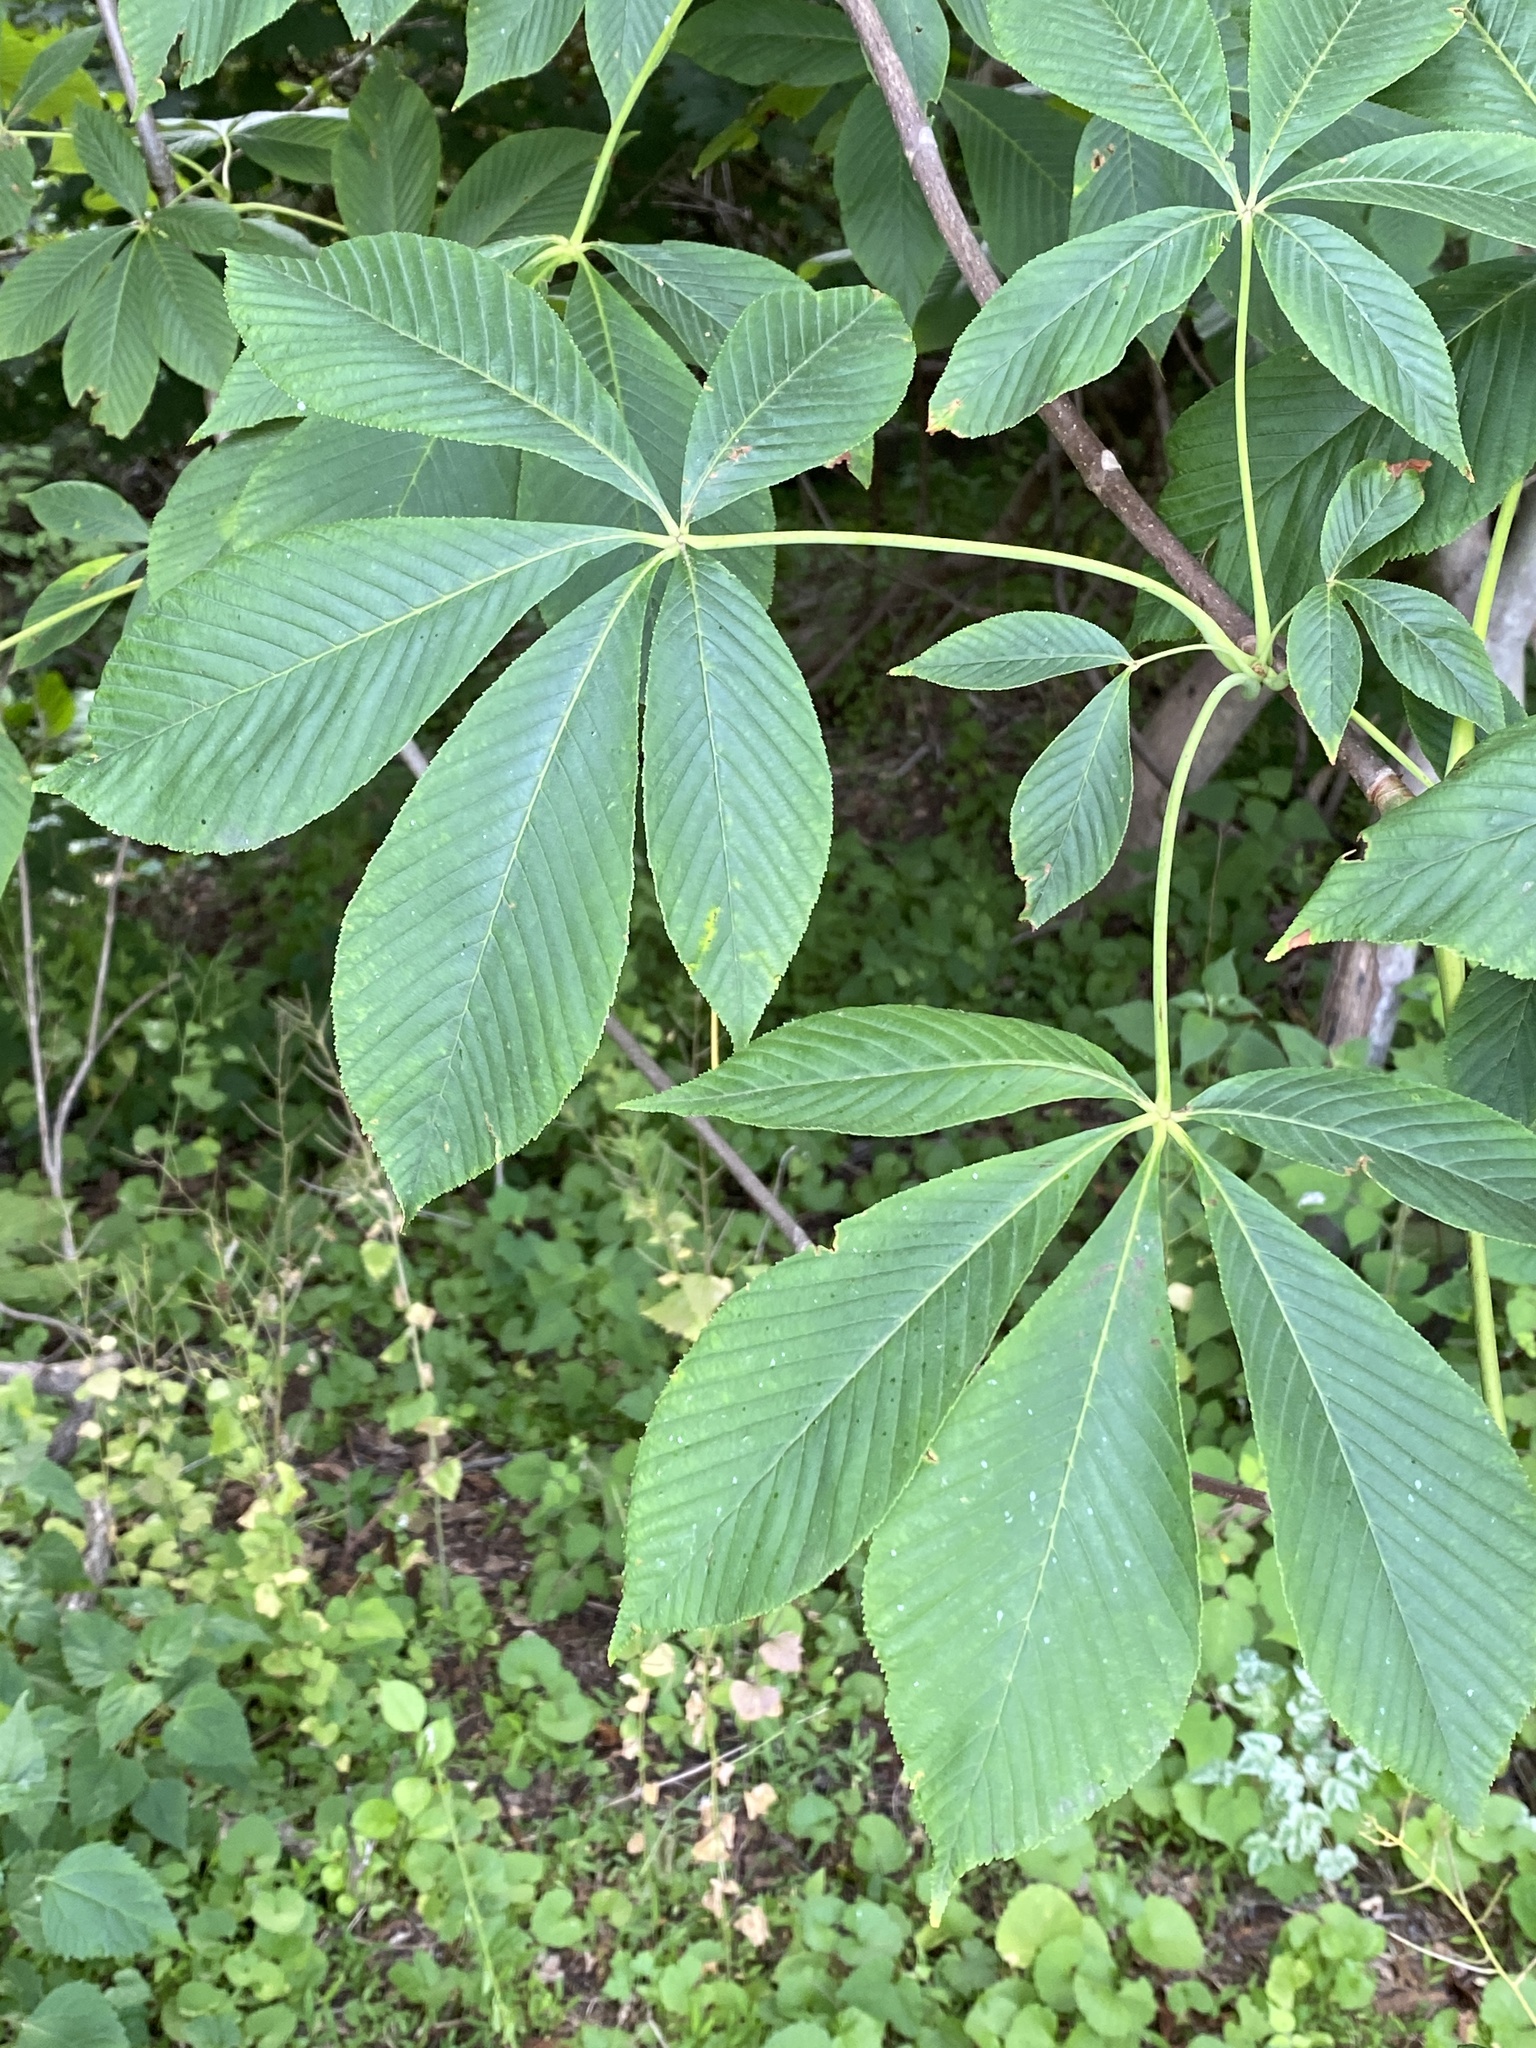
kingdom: Plantae
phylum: Tracheophyta
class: Magnoliopsida
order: Sapindales
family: Sapindaceae
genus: Aesculus
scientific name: Aesculus flava
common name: Yellow buckeye
